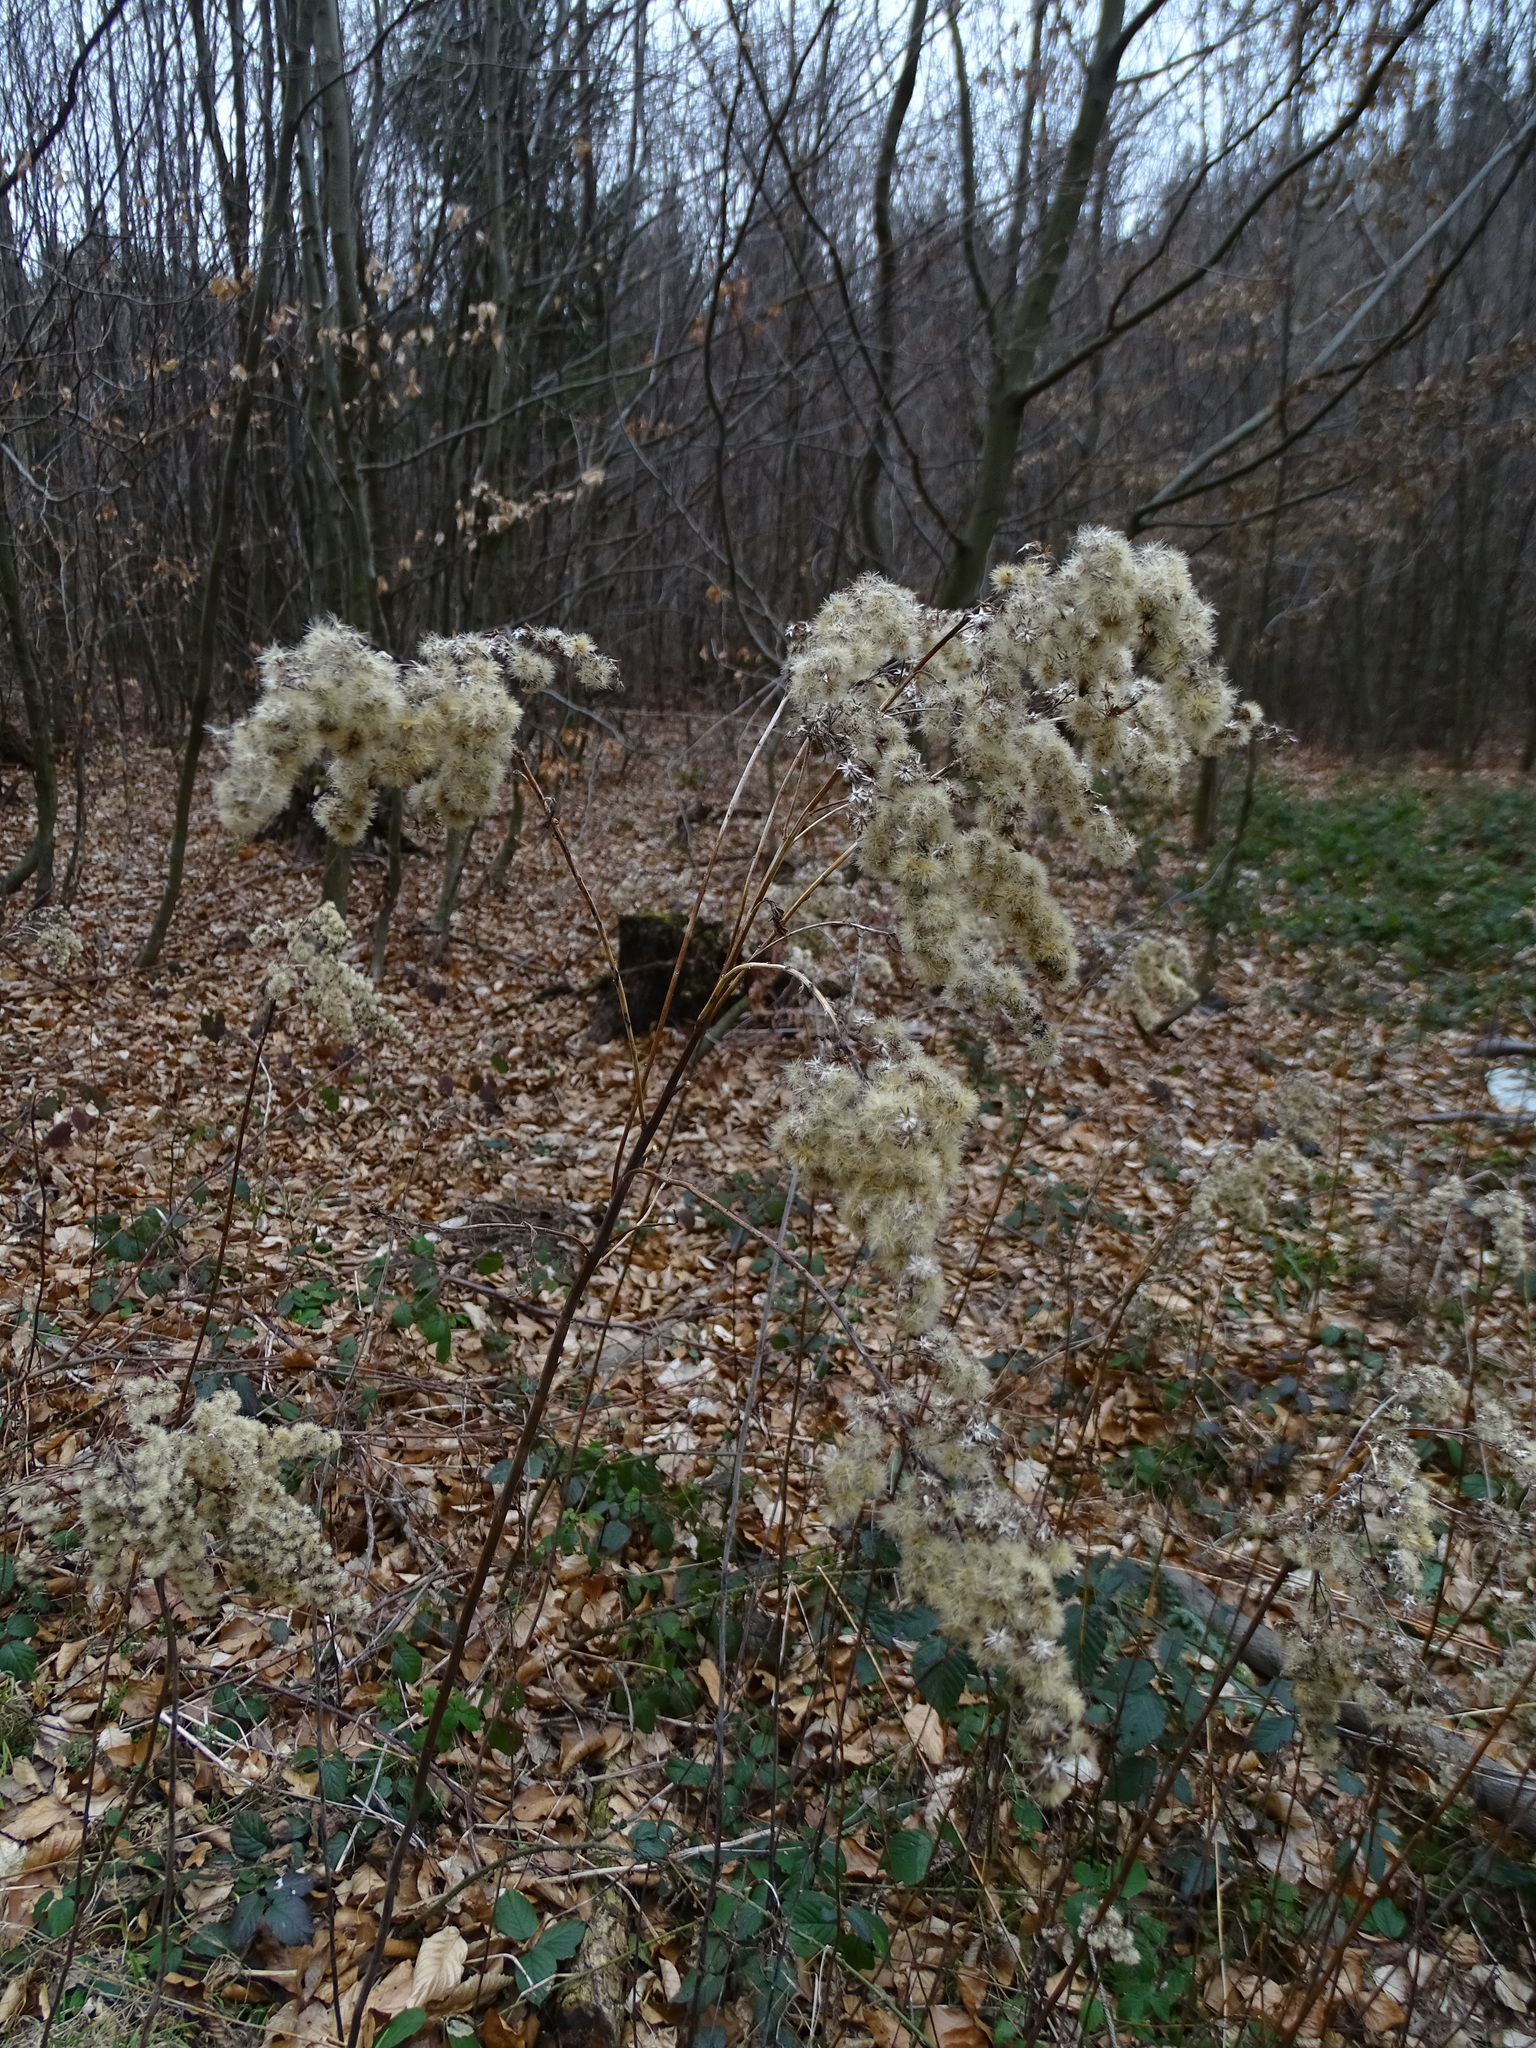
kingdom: Plantae
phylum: Tracheophyta
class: Magnoliopsida
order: Asterales
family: Asteraceae
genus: Solidago
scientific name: Solidago gigantea
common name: Giant goldenrod
